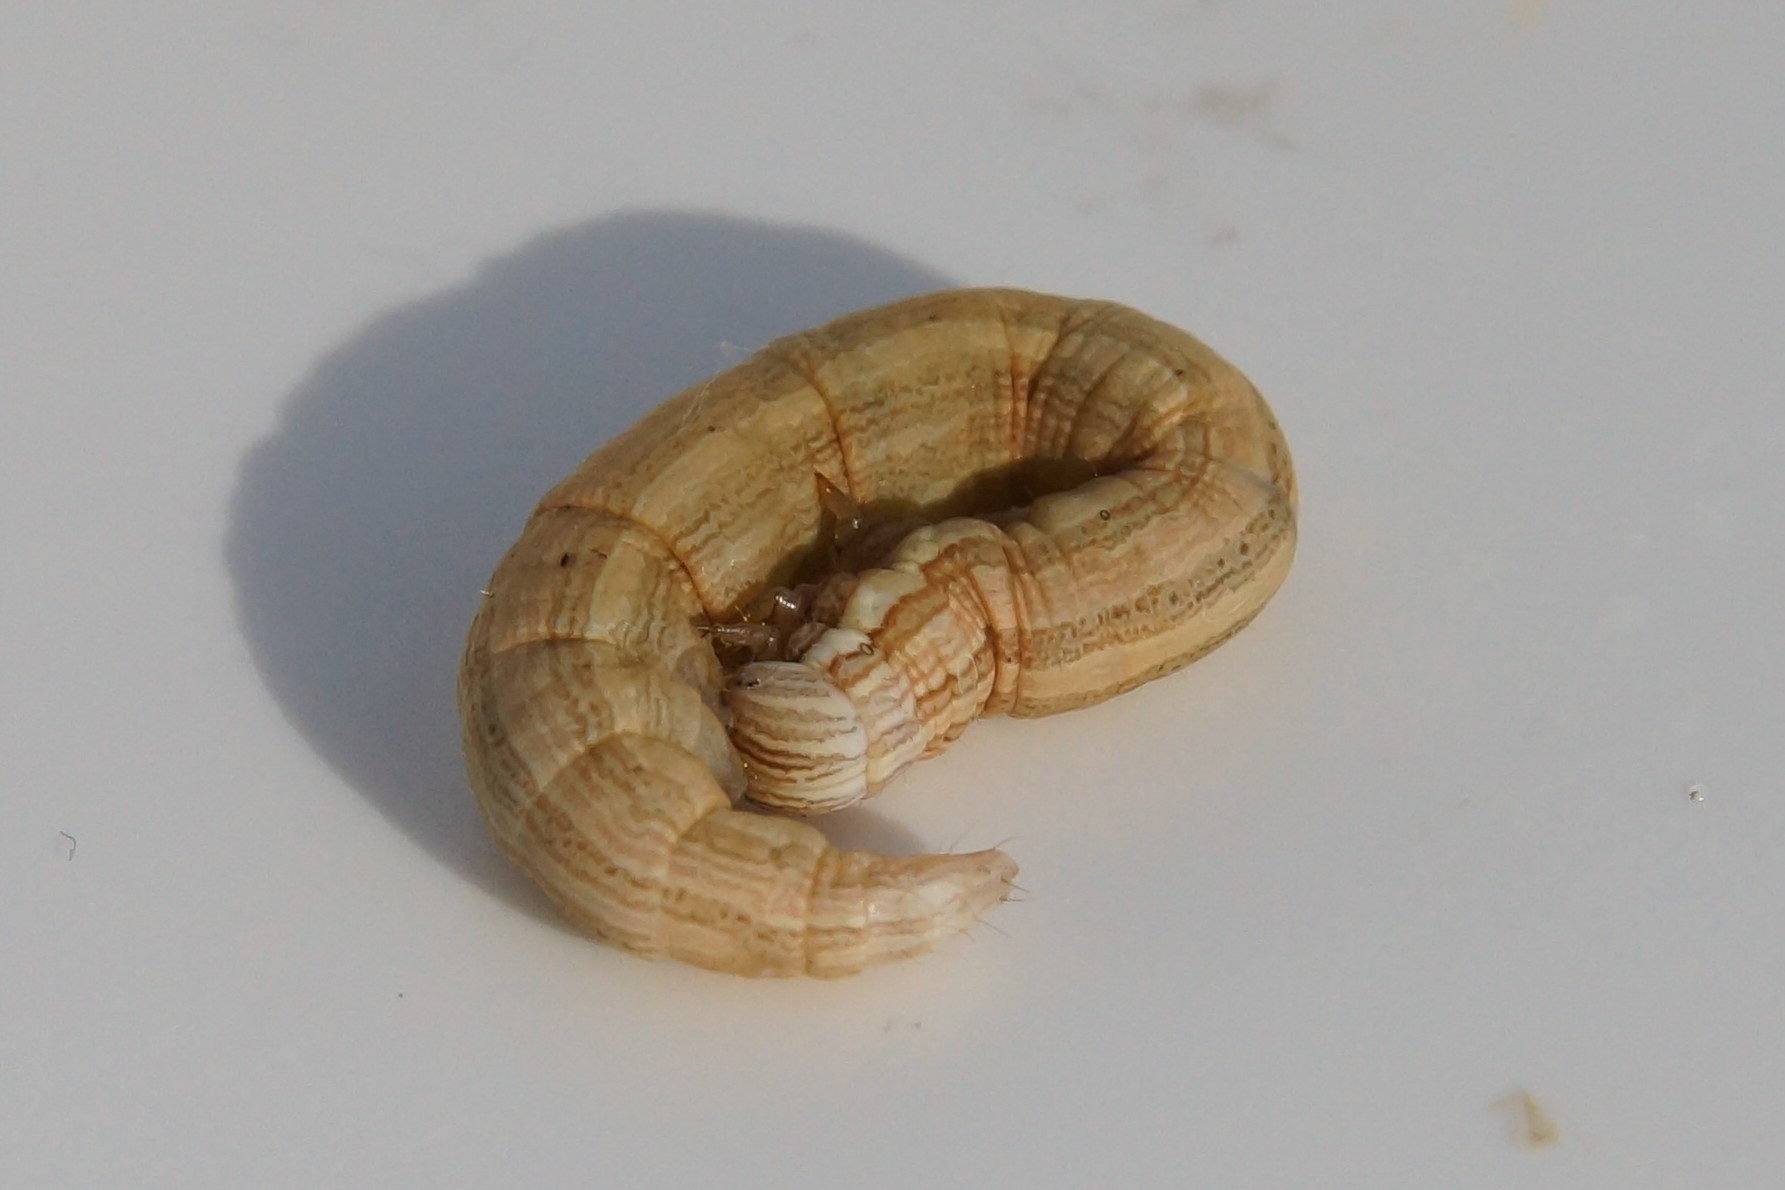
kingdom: Animalia
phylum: Arthropoda
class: Insecta
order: Lepidoptera
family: Erebidae
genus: Callistege
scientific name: Callistege mi
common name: Mother shipton
